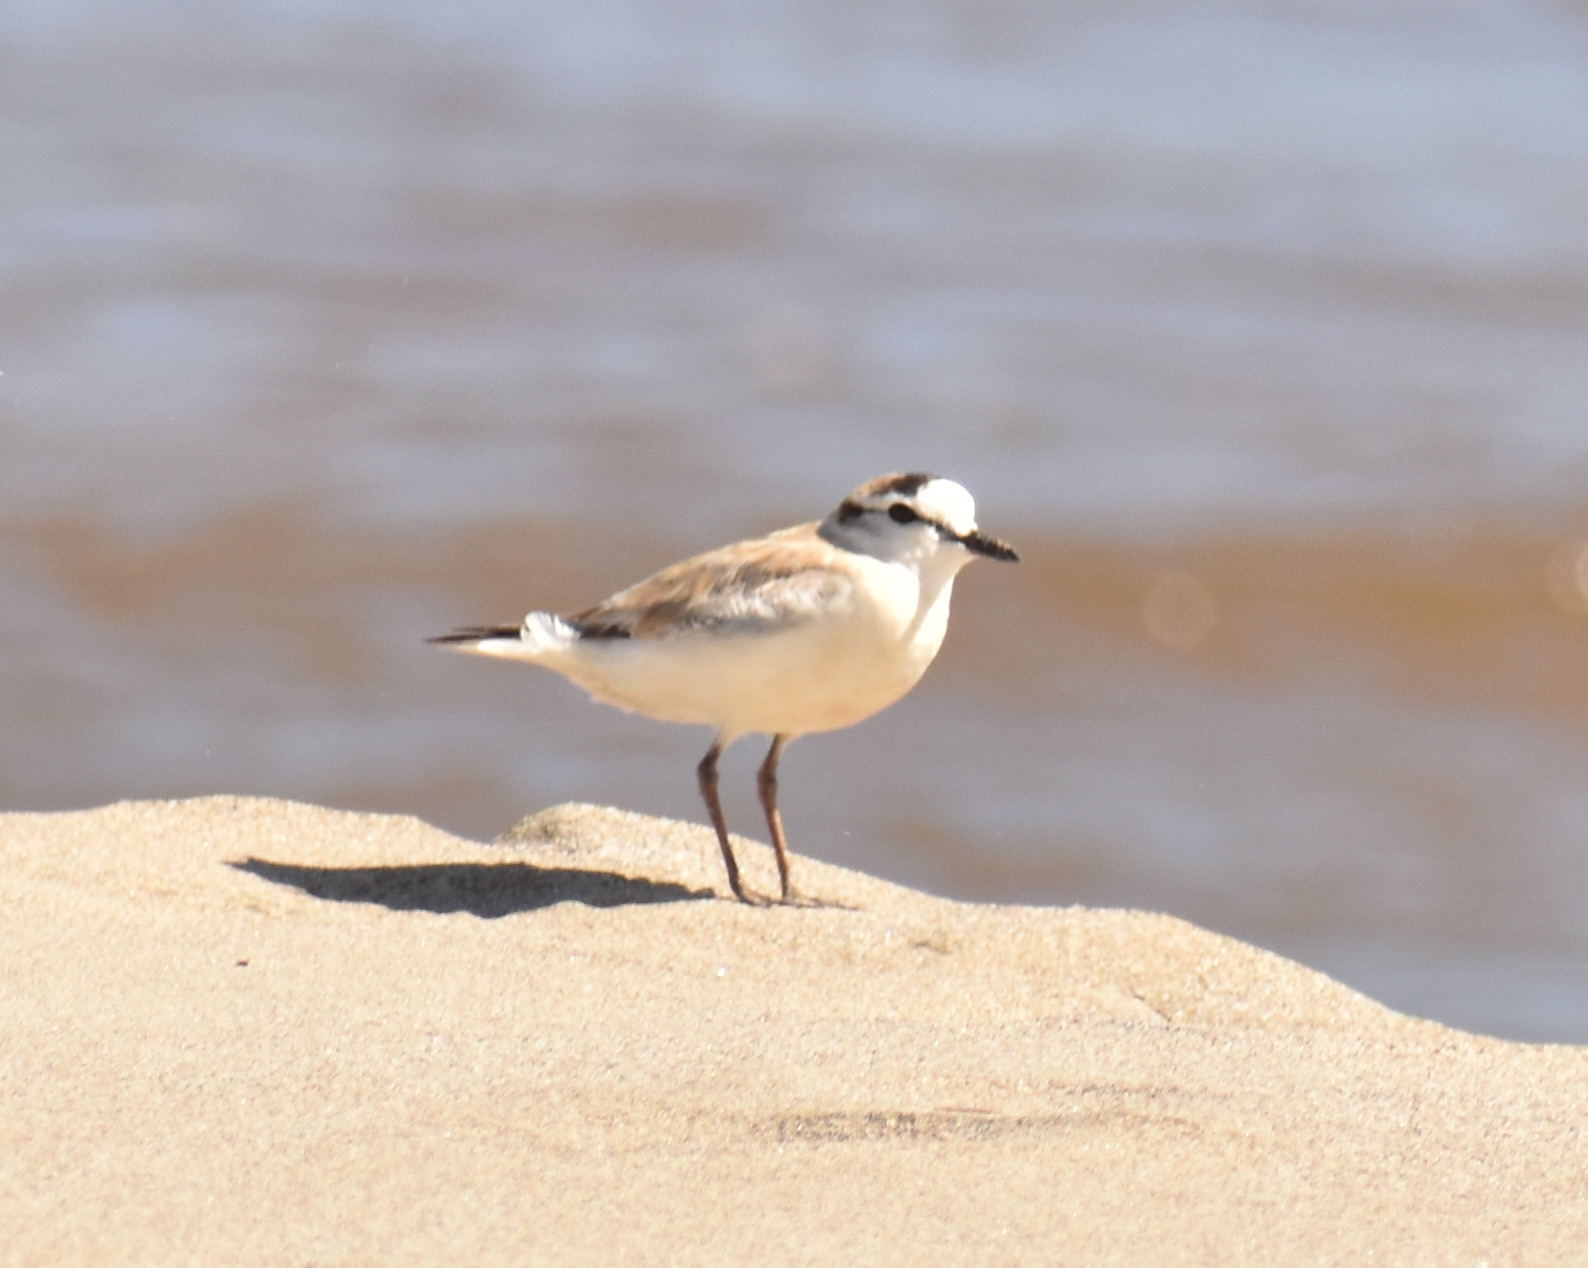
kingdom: Animalia
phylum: Chordata
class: Aves
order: Charadriiformes
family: Charadriidae
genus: Anarhynchus
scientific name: Anarhynchus
